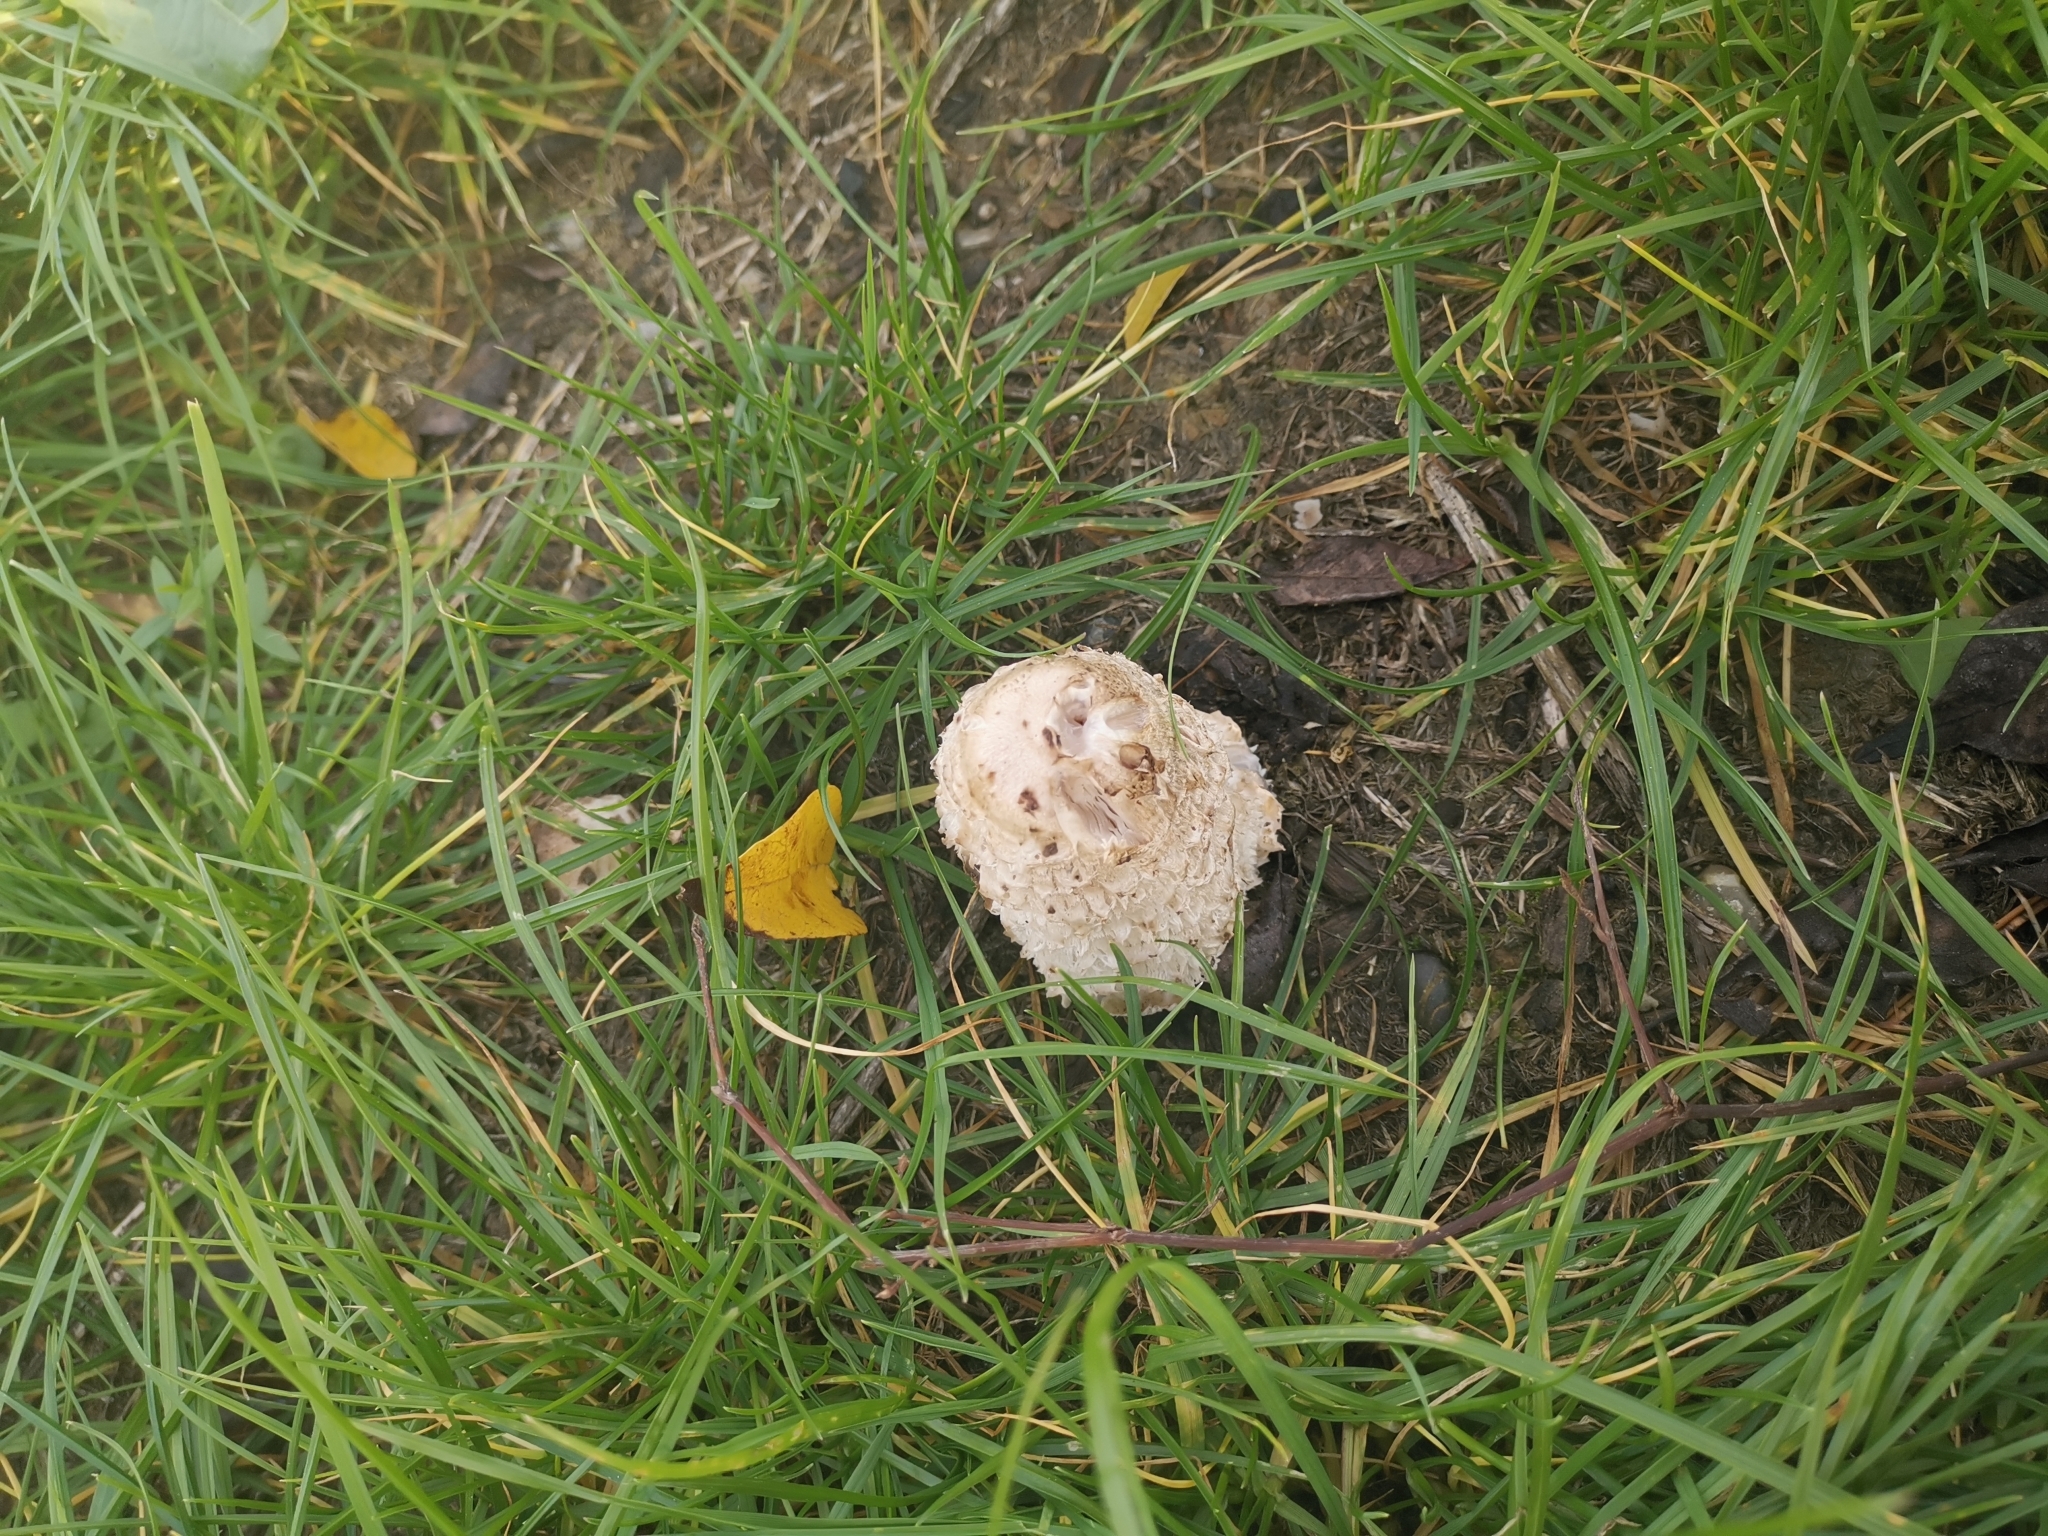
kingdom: Fungi
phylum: Basidiomycota
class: Agaricomycetes
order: Agaricales
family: Agaricaceae
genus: Coprinus
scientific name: Coprinus comatus
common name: Lawyer's wig
